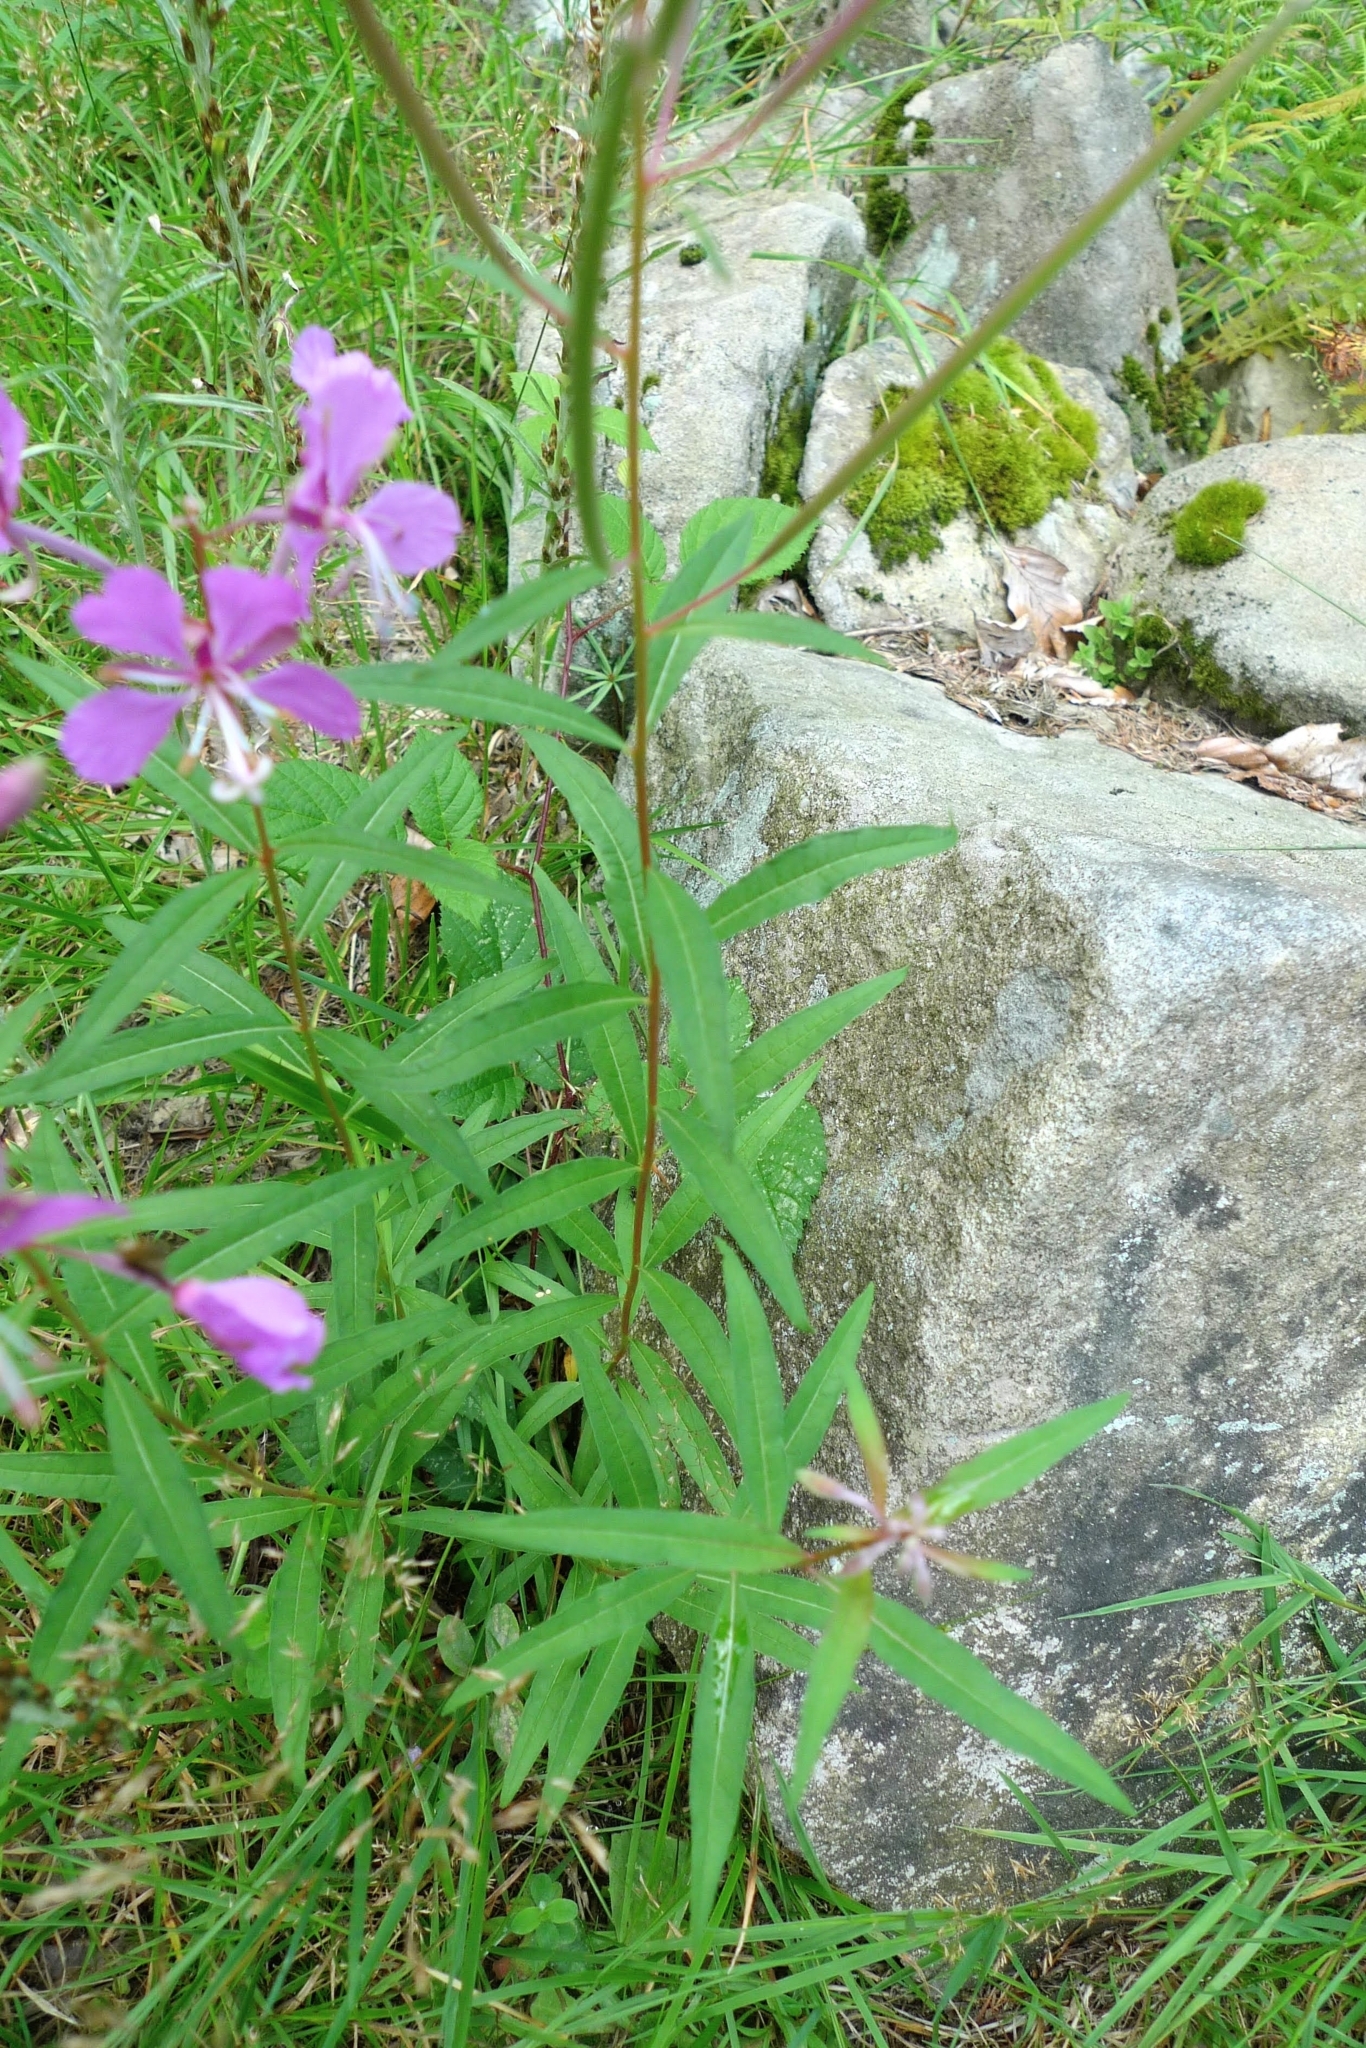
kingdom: Plantae
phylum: Tracheophyta
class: Magnoliopsida
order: Myrtales
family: Onagraceae
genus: Chamaenerion
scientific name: Chamaenerion angustifolium
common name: Fireweed
